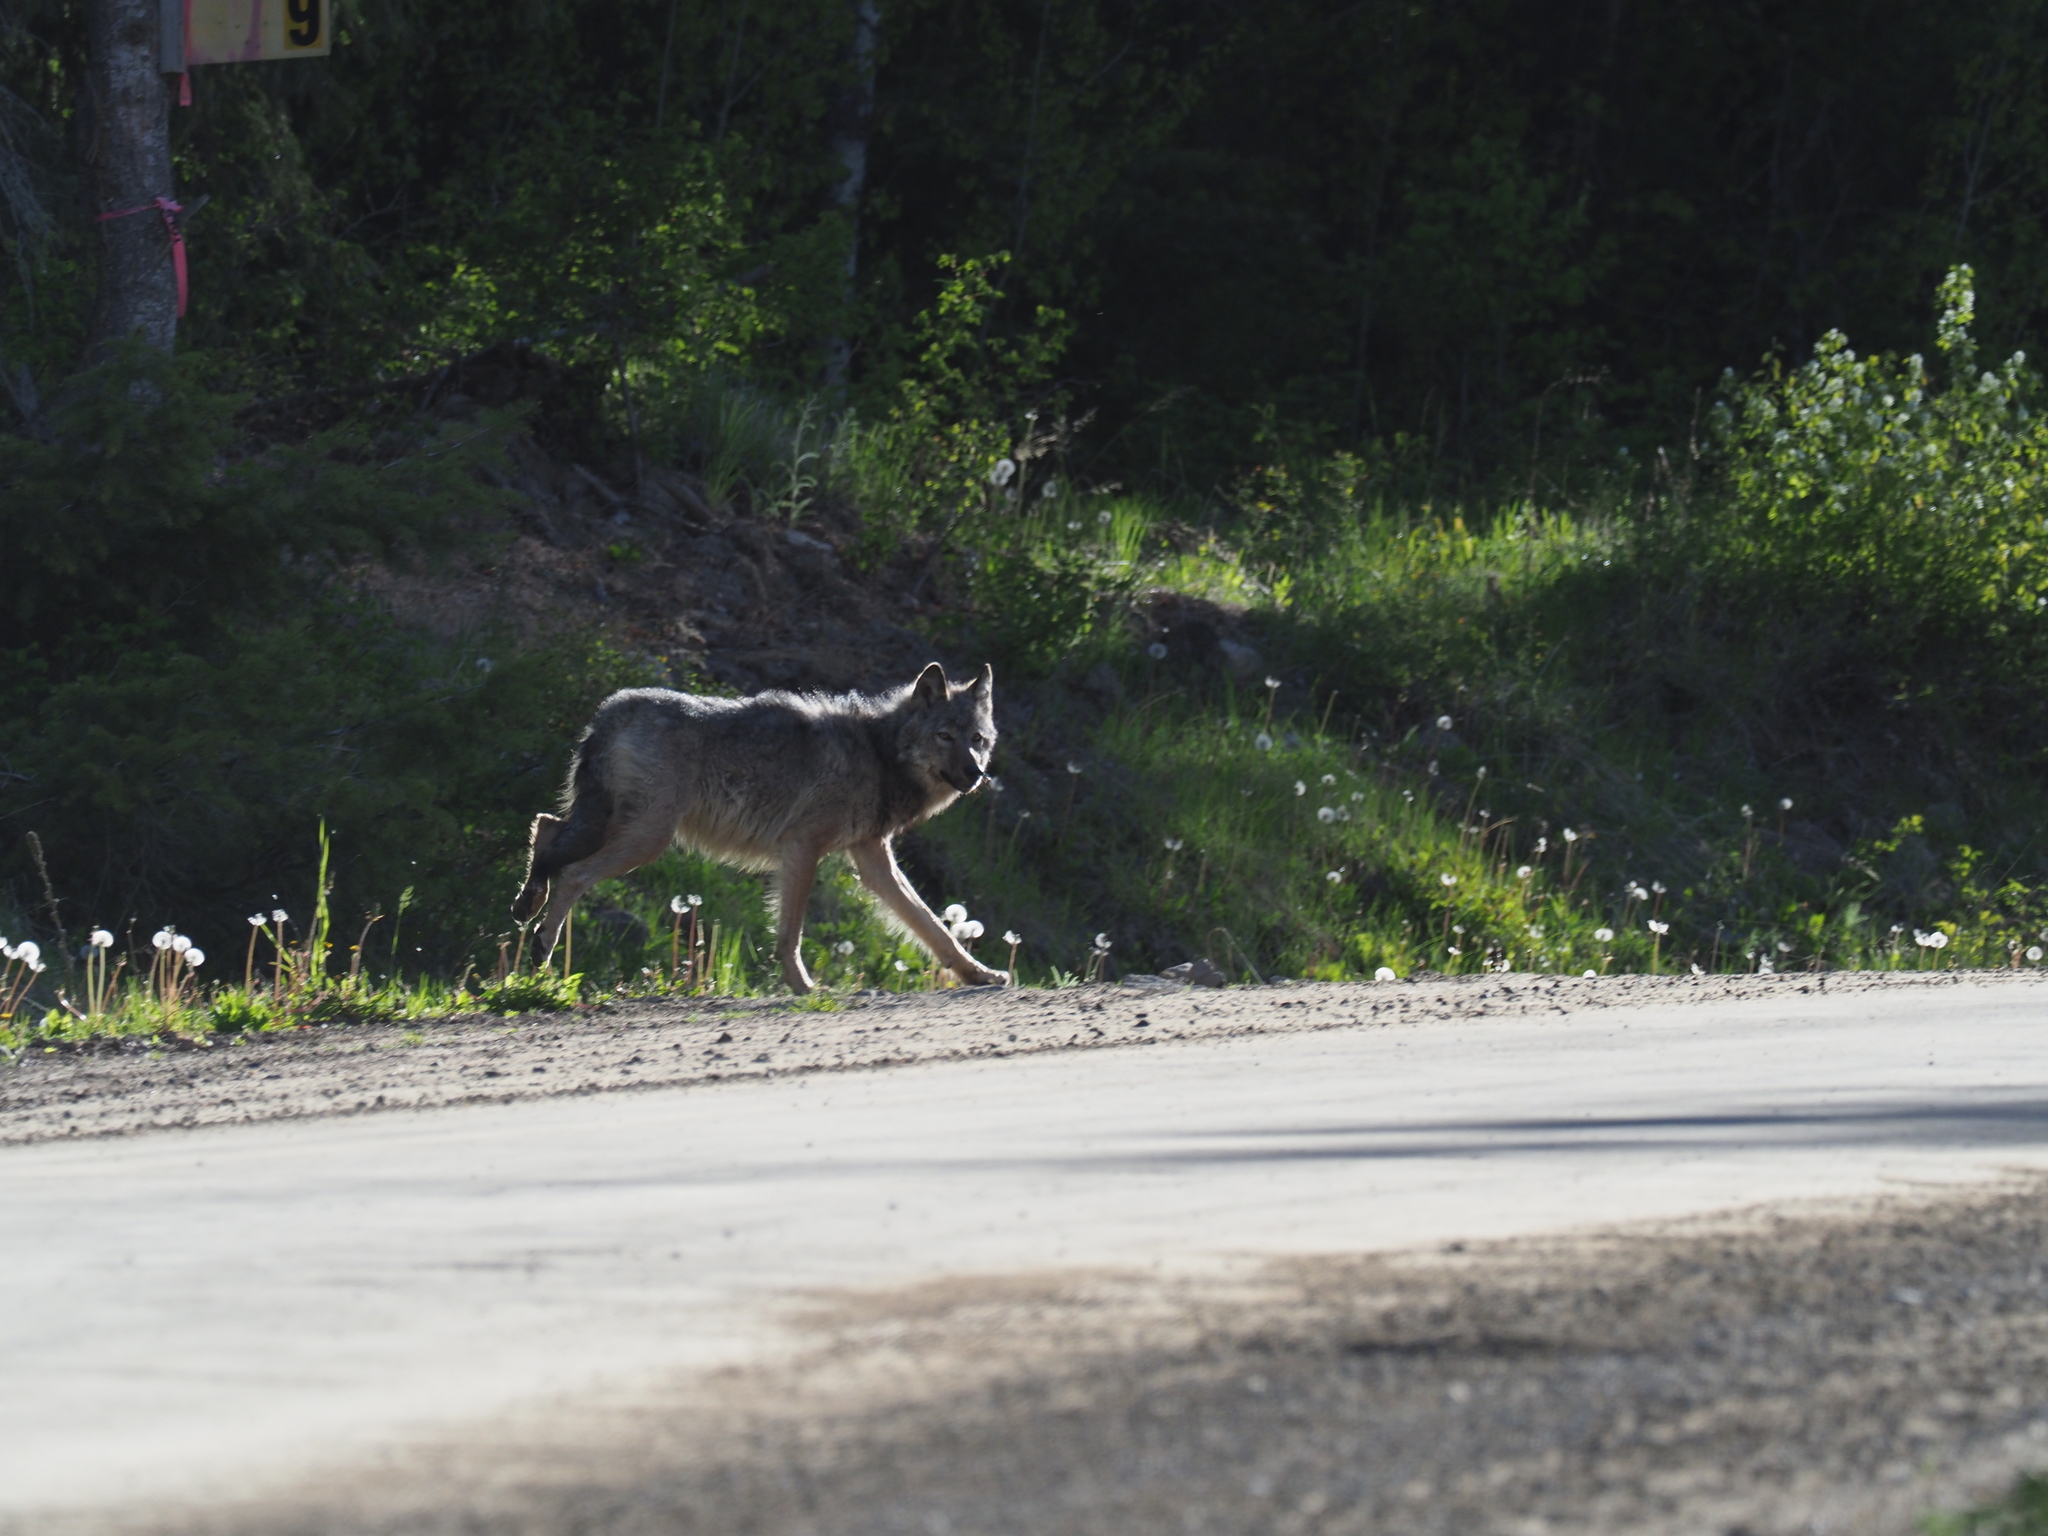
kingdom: Animalia
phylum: Chordata
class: Mammalia
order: Carnivora
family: Canidae
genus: Canis
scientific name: Canis lupus
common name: Gray wolf
